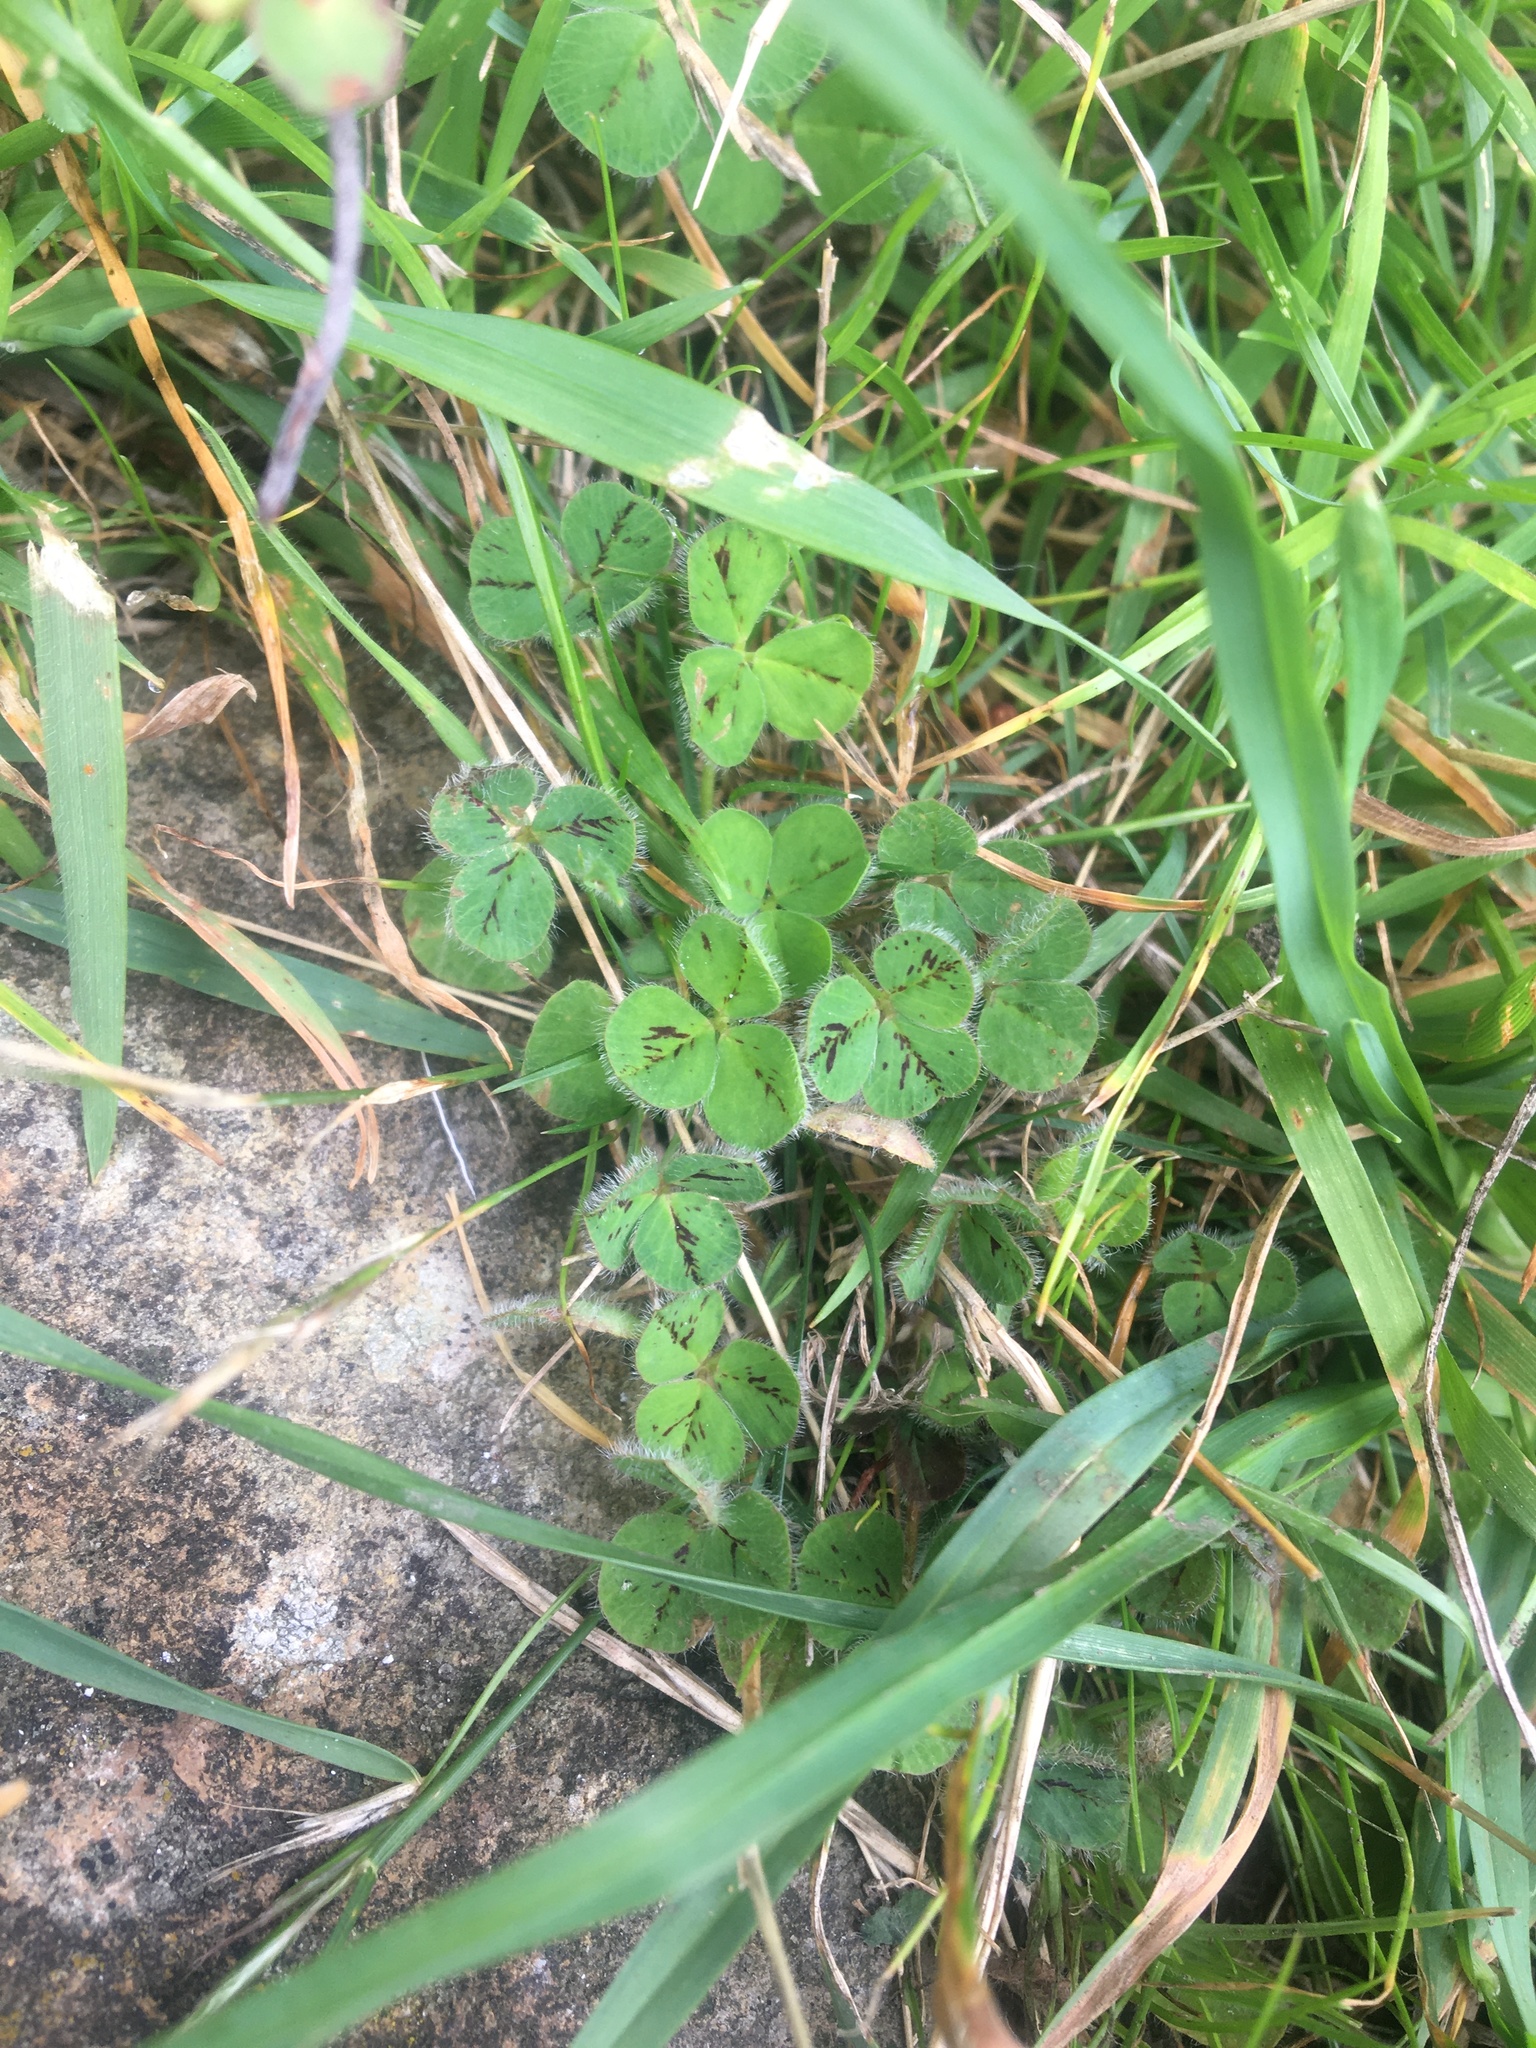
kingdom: Plantae
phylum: Tracheophyta
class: Magnoliopsida
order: Fabales
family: Fabaceae
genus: Trifolium
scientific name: Trifolium subterraneum
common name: Subterranean clover
